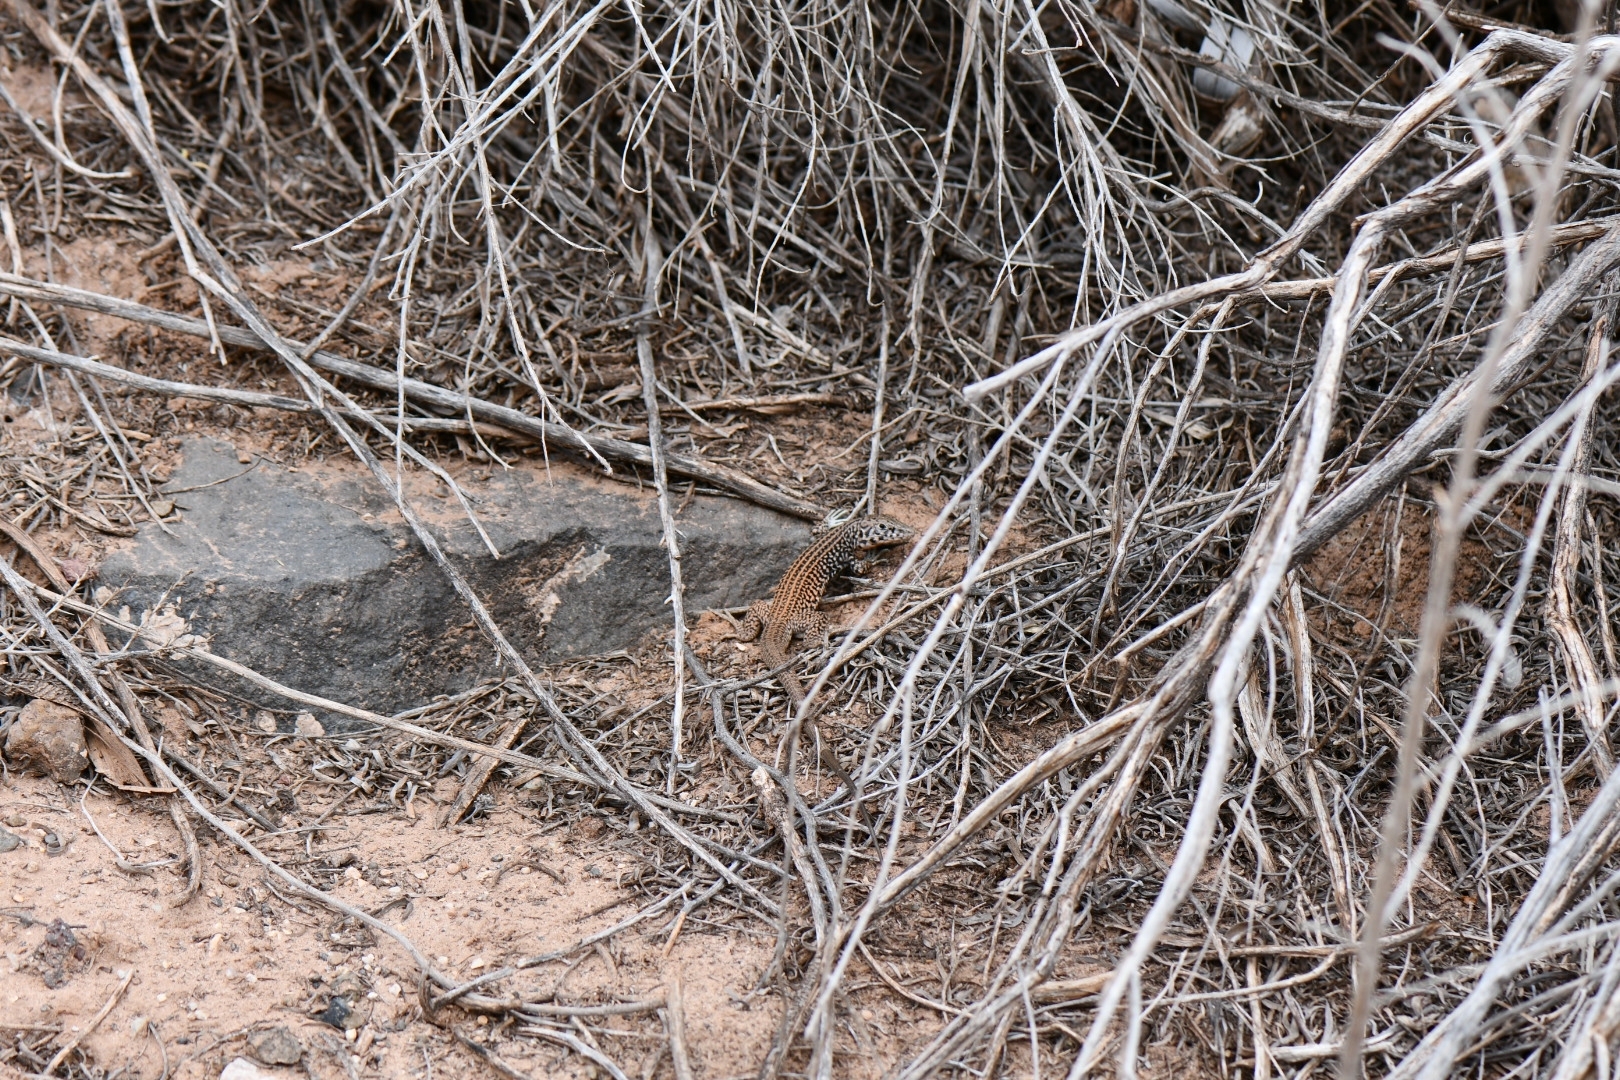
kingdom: Animalia
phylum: Chordata
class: Squamata
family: Teiidae
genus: Aspidoscelis
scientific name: Aspidoscelis tigris
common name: Tiger whiptail
